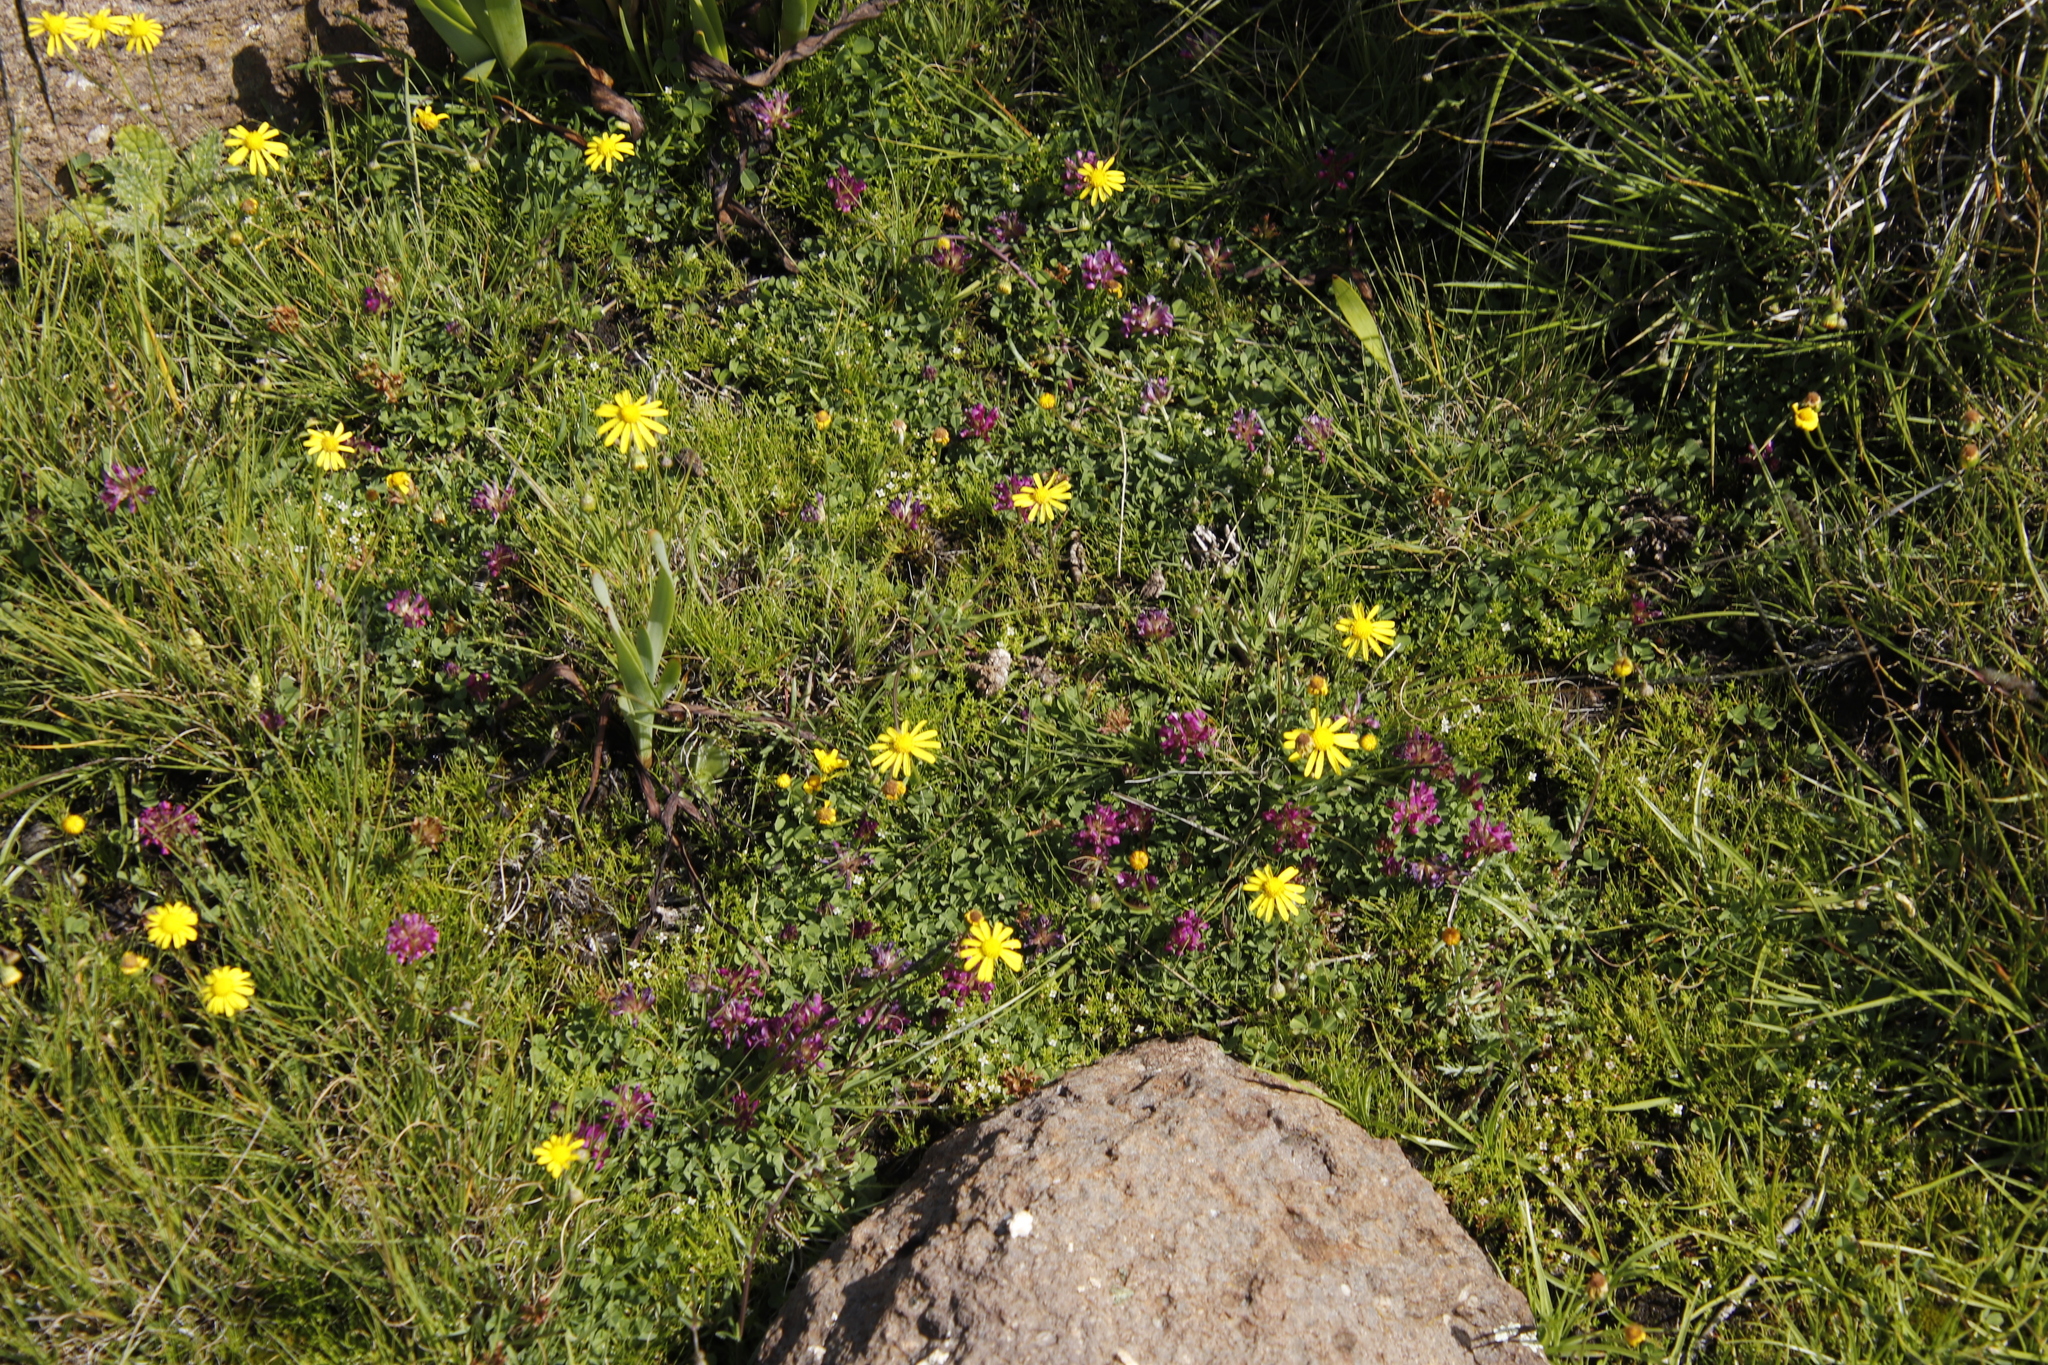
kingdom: Plantae
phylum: Tracheophyta
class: Magnoliopsida
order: Fabales
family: Fabaceae
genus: Trifolium
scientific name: Trifolium burchellianum
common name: Burchell's clover
